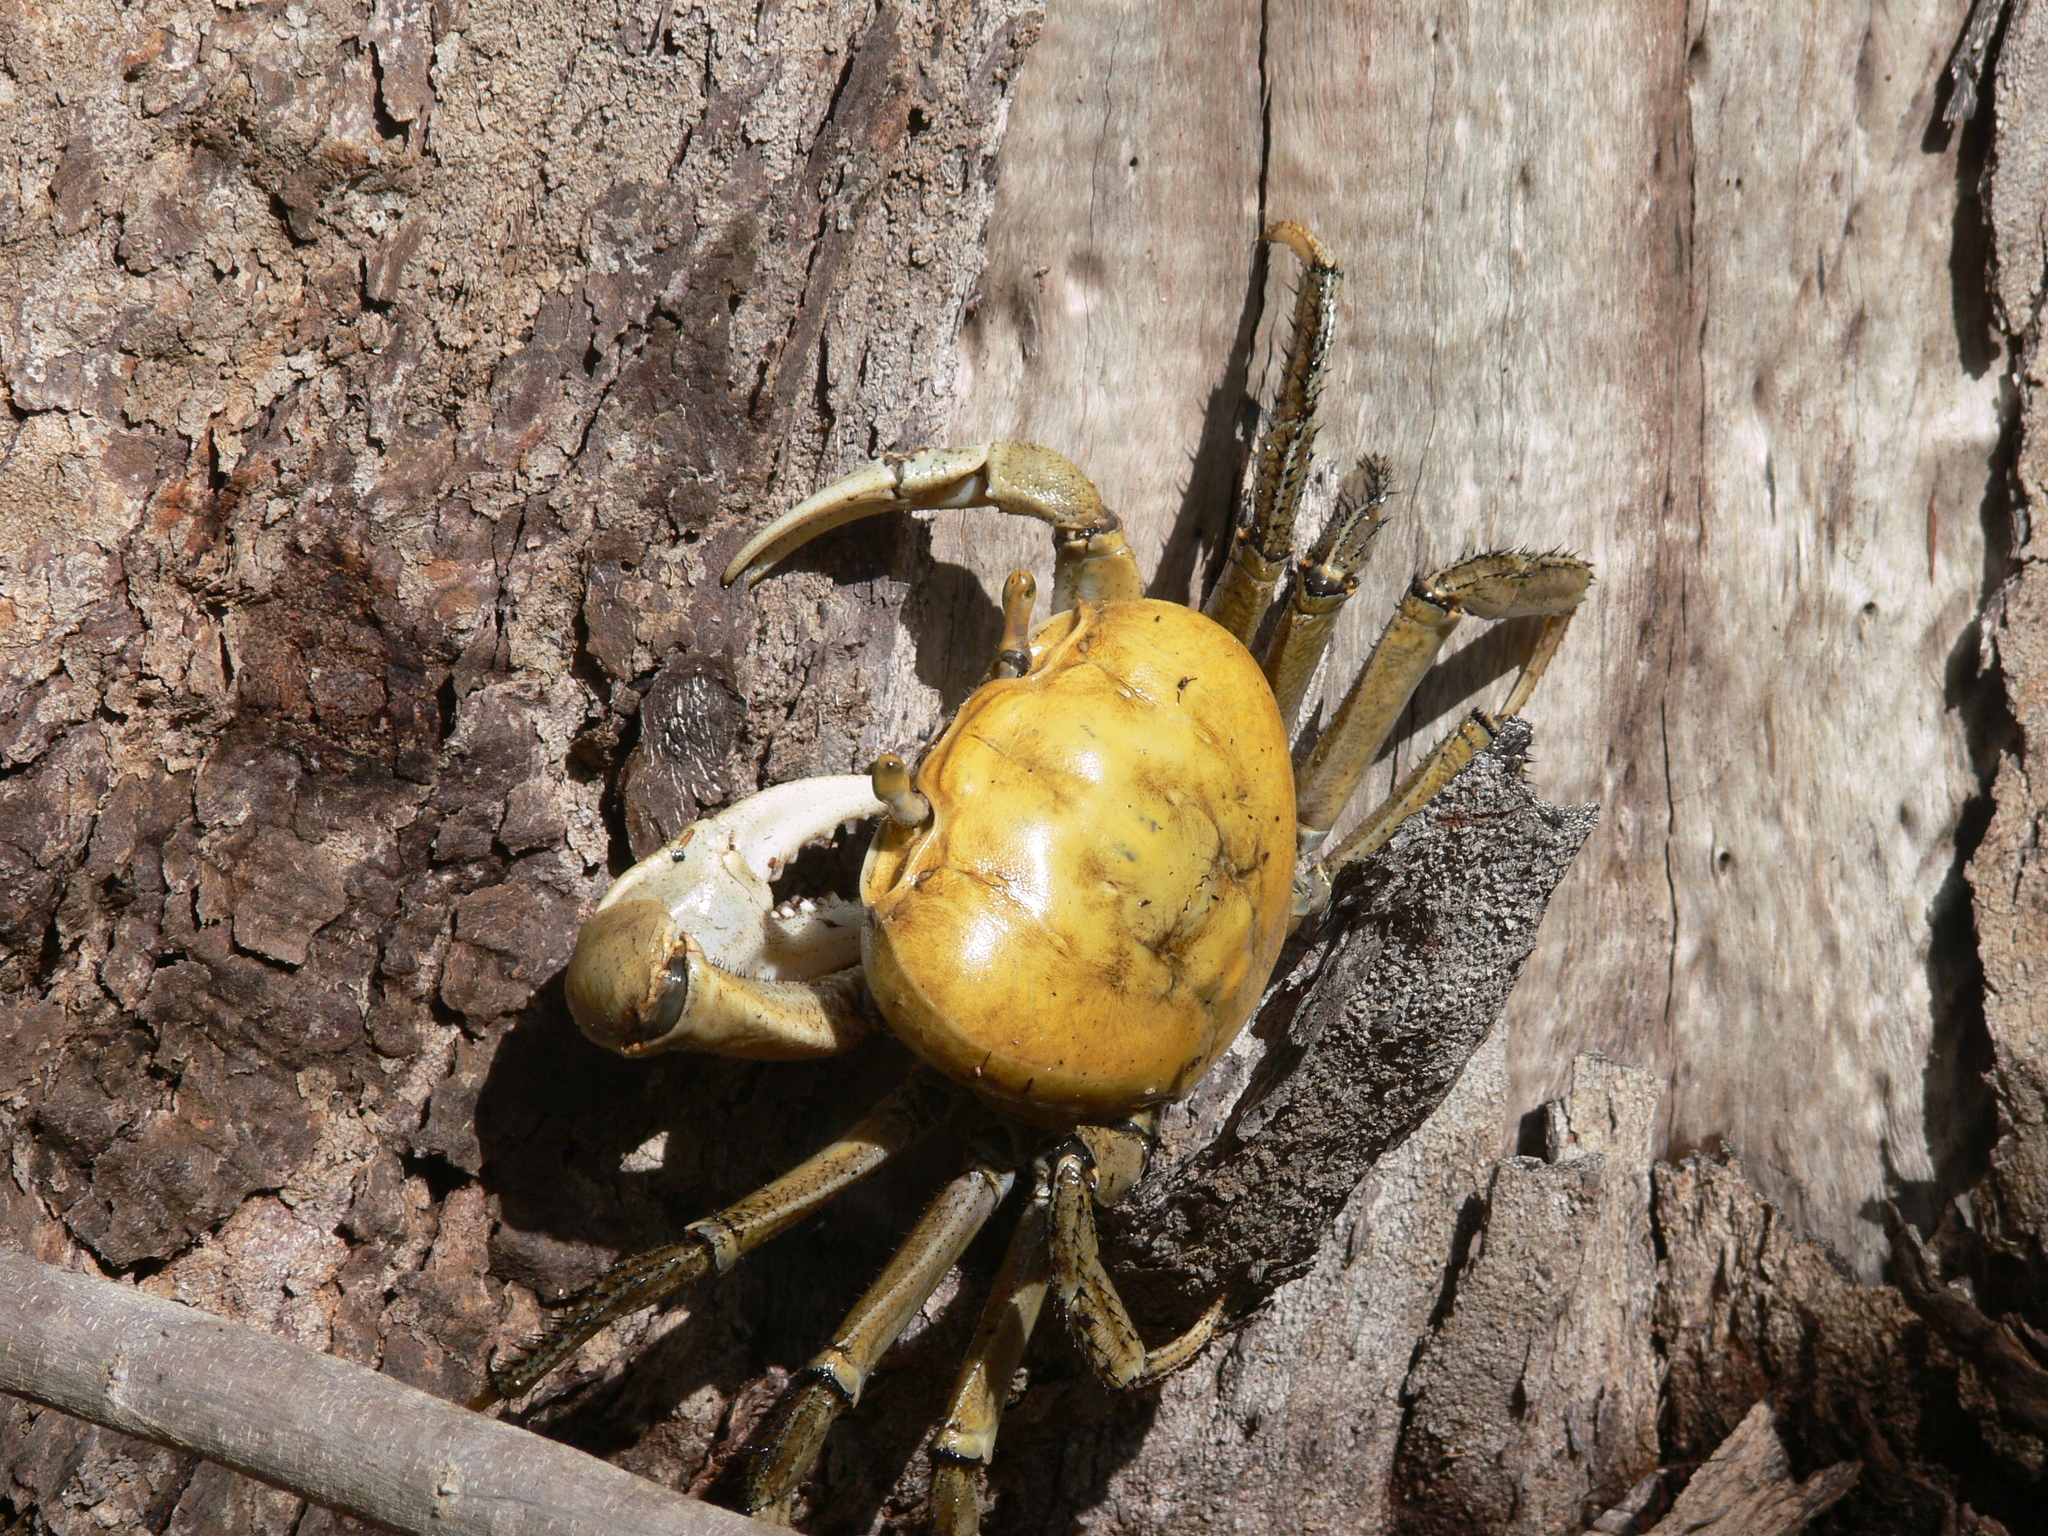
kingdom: Animalia
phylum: Arthropoda
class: Malacostraca
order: Decapoda
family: Gecarcinidae
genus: Cardisoma
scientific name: Cardisoma guanhumi
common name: Great land crab
